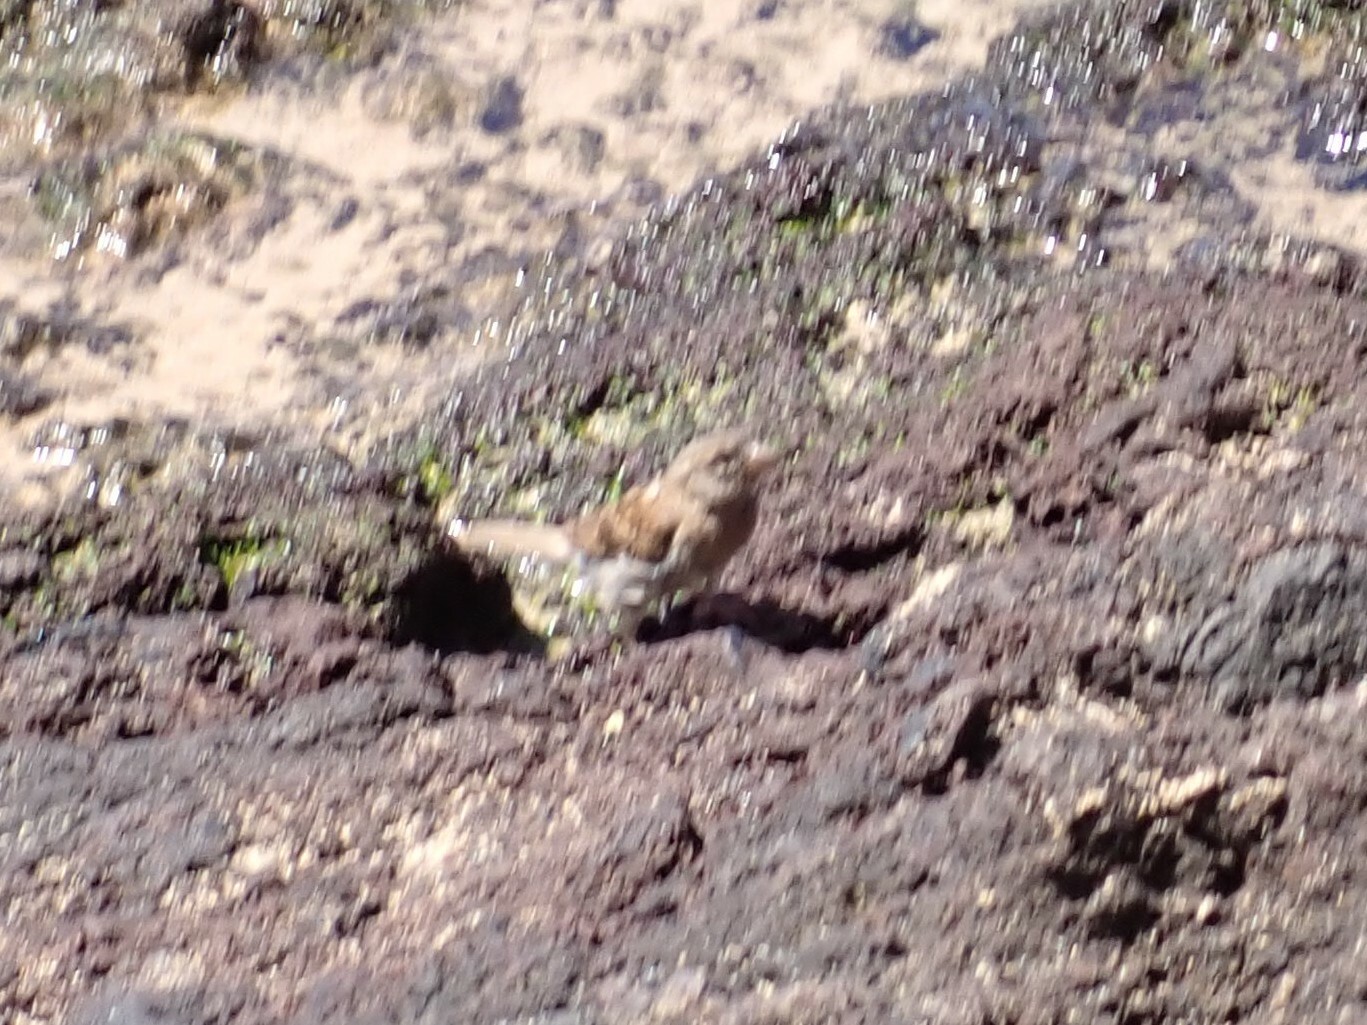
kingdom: Animalia
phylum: Chordata
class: Aves
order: Passeriformes
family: Passeridae
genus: Passer
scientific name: Passer domesticus
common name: House sparrow
